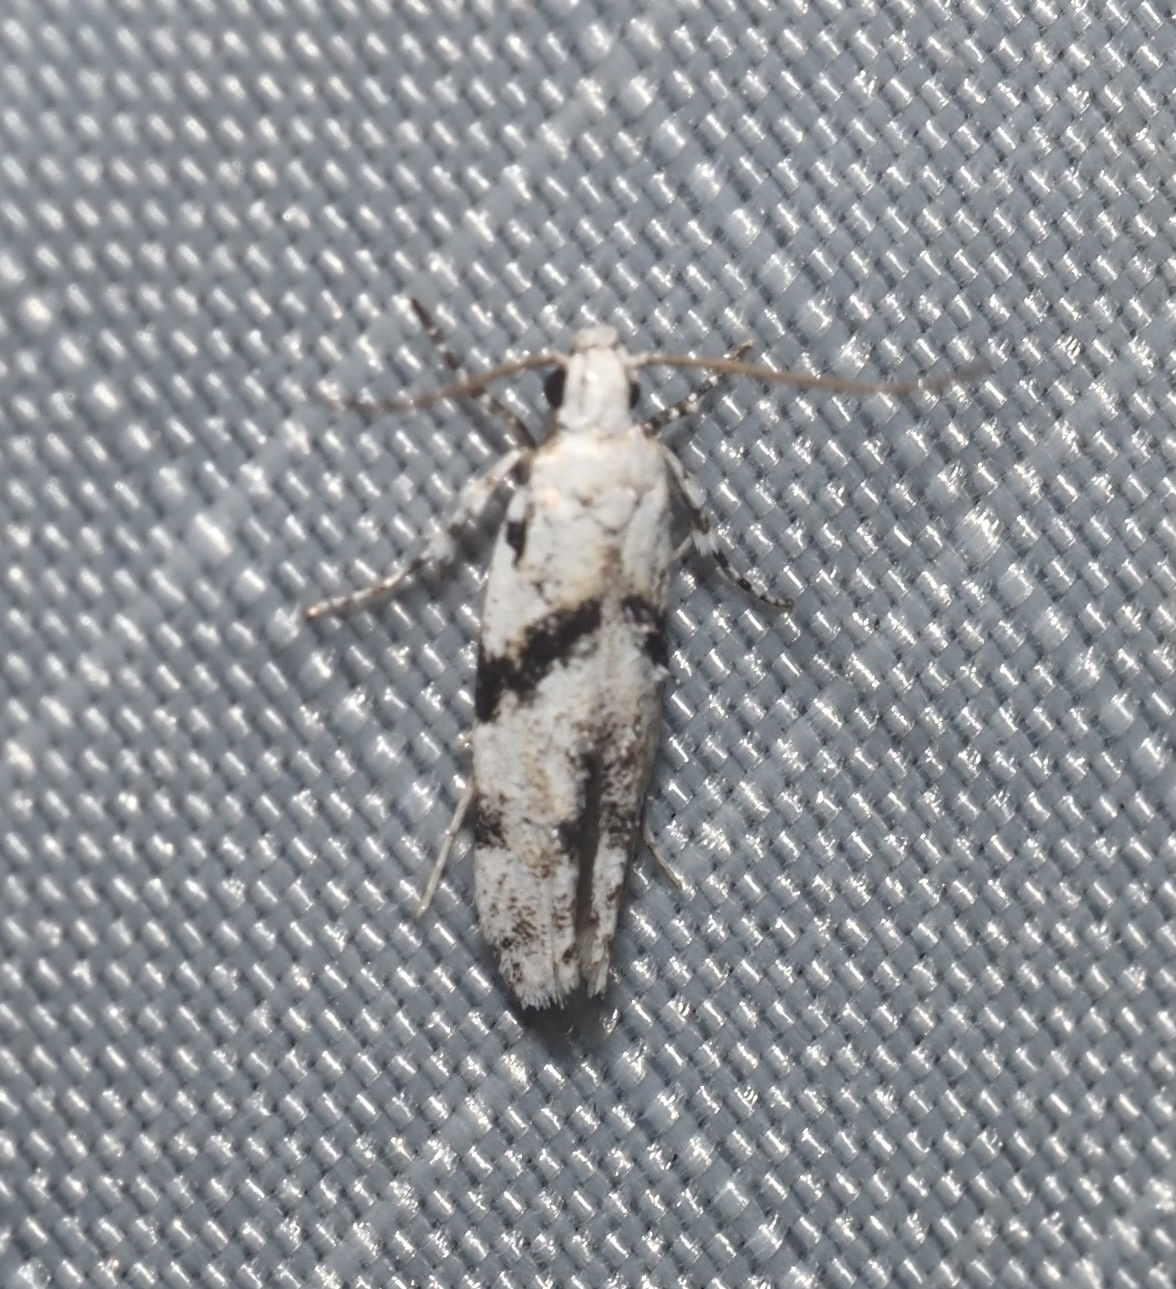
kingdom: Animalia
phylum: Arthropoda
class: Insecta
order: Lepidoptera
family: Gelechiidae
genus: Arogalea
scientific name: Arogalea cristifasciella
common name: White stripe-backed moth
